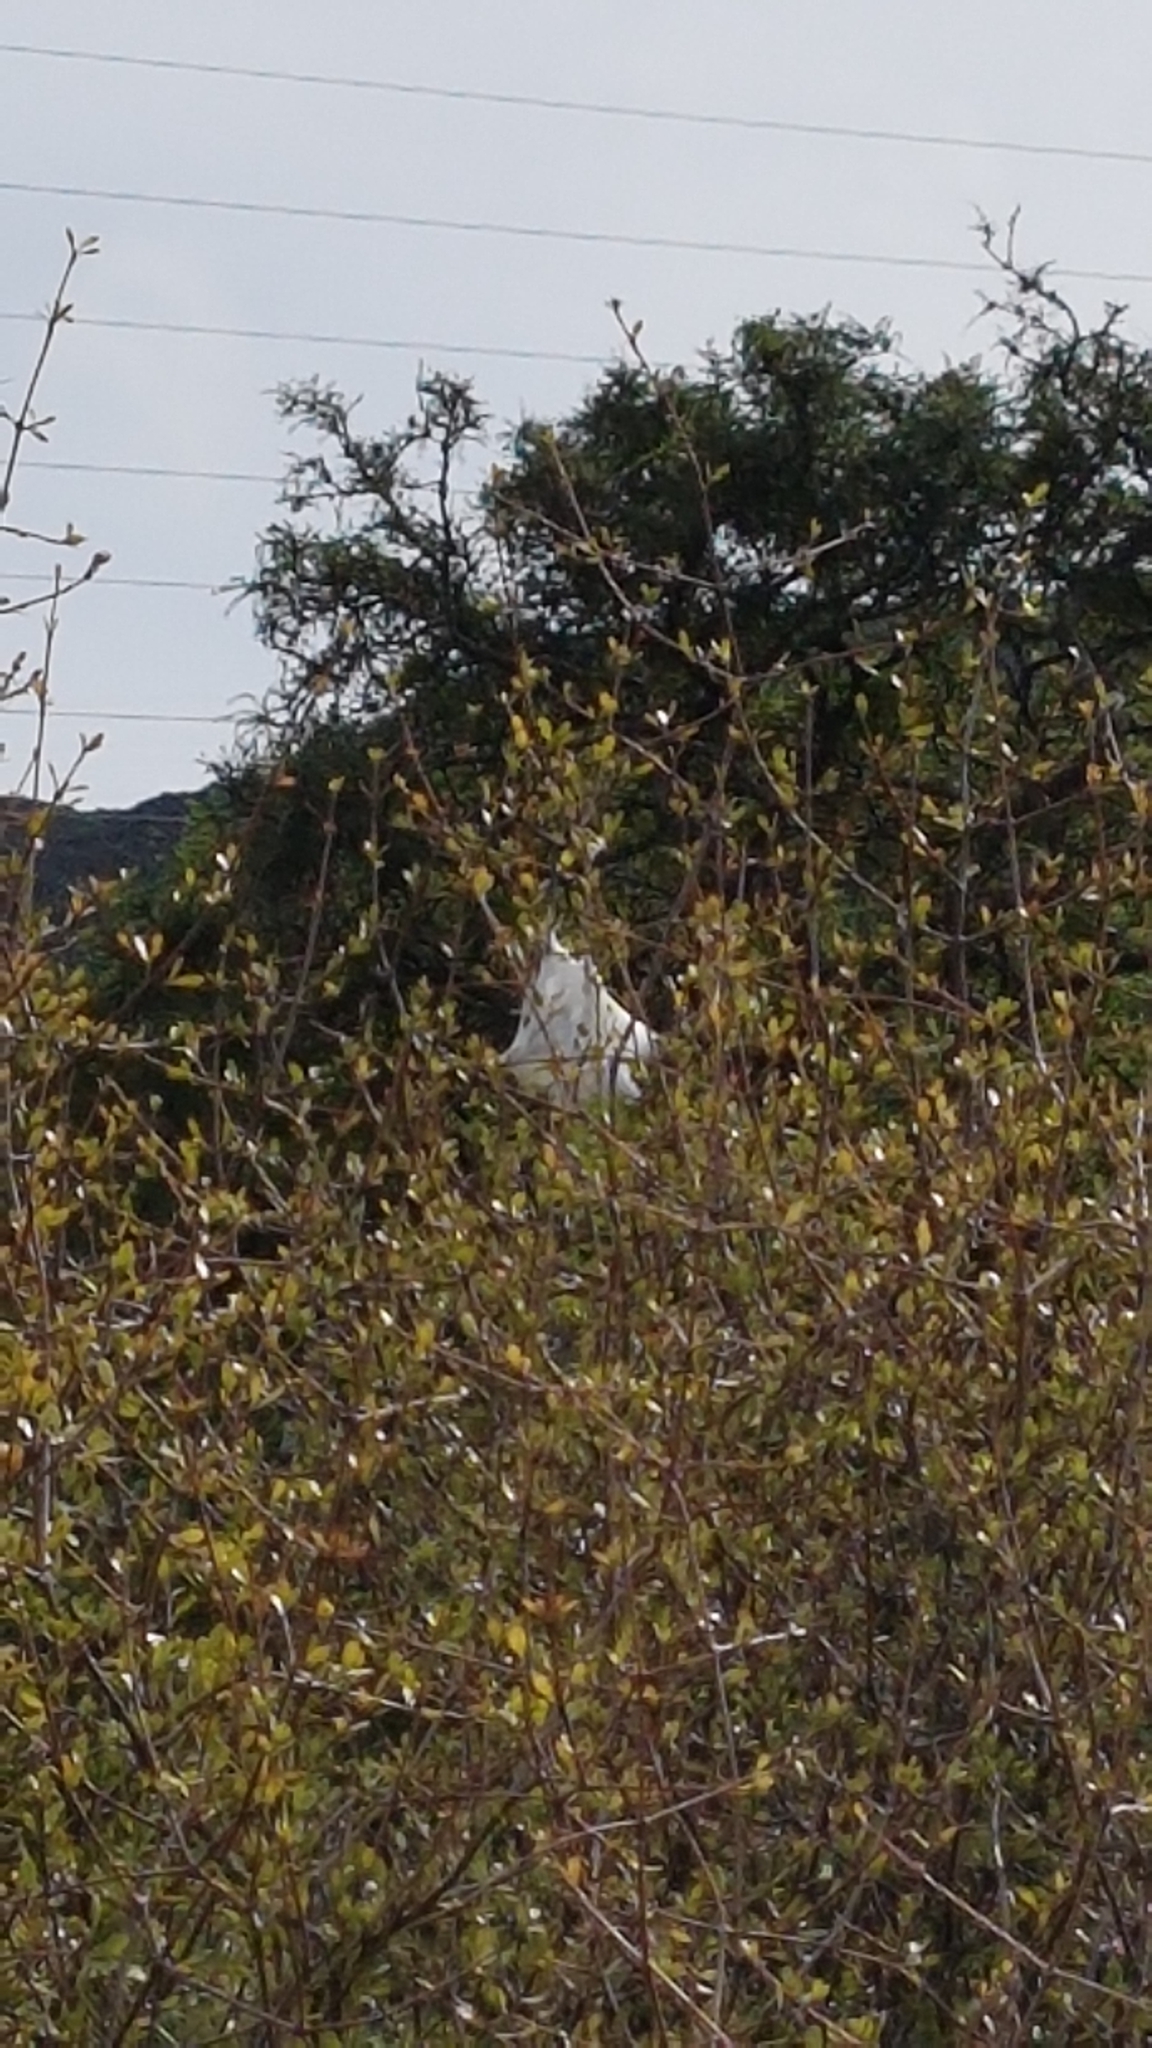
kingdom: Animalia
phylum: Arthropoda
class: Arachnida
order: Araneae
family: Pisauridae
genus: Dolomedes
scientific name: Dolomedes minor
